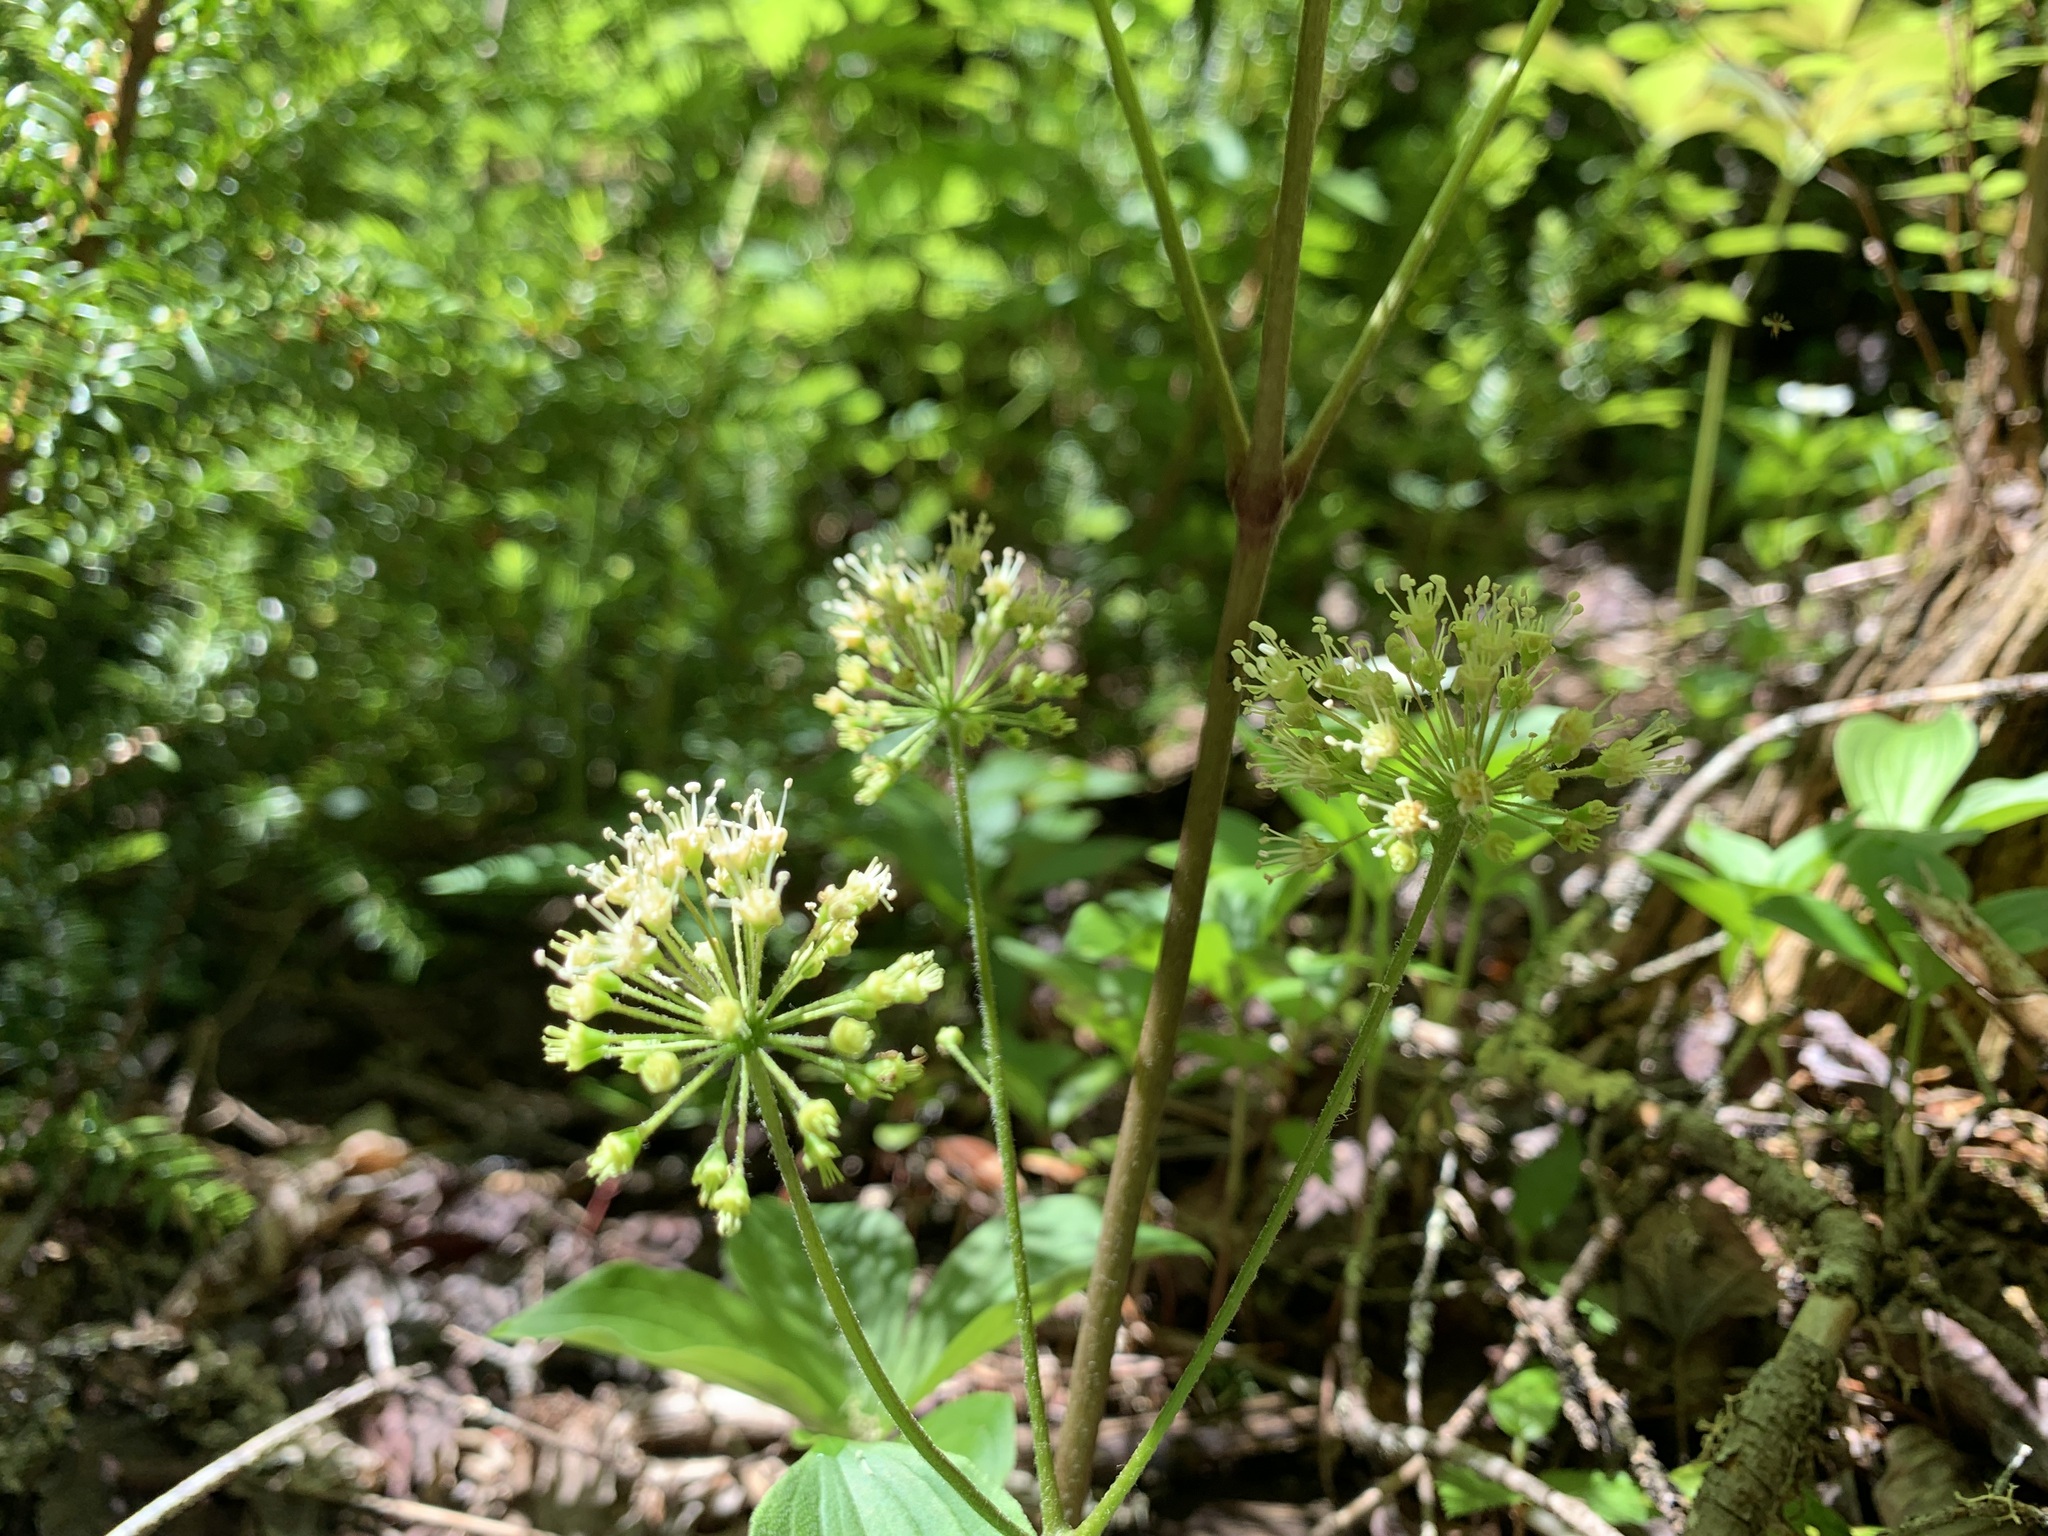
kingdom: Plantae
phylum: Tracheophyta
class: Magnoliopsida
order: Apiales
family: Araliaceae
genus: Aralia
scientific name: Aralia nudicaulis
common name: Wild sarsaparilla
